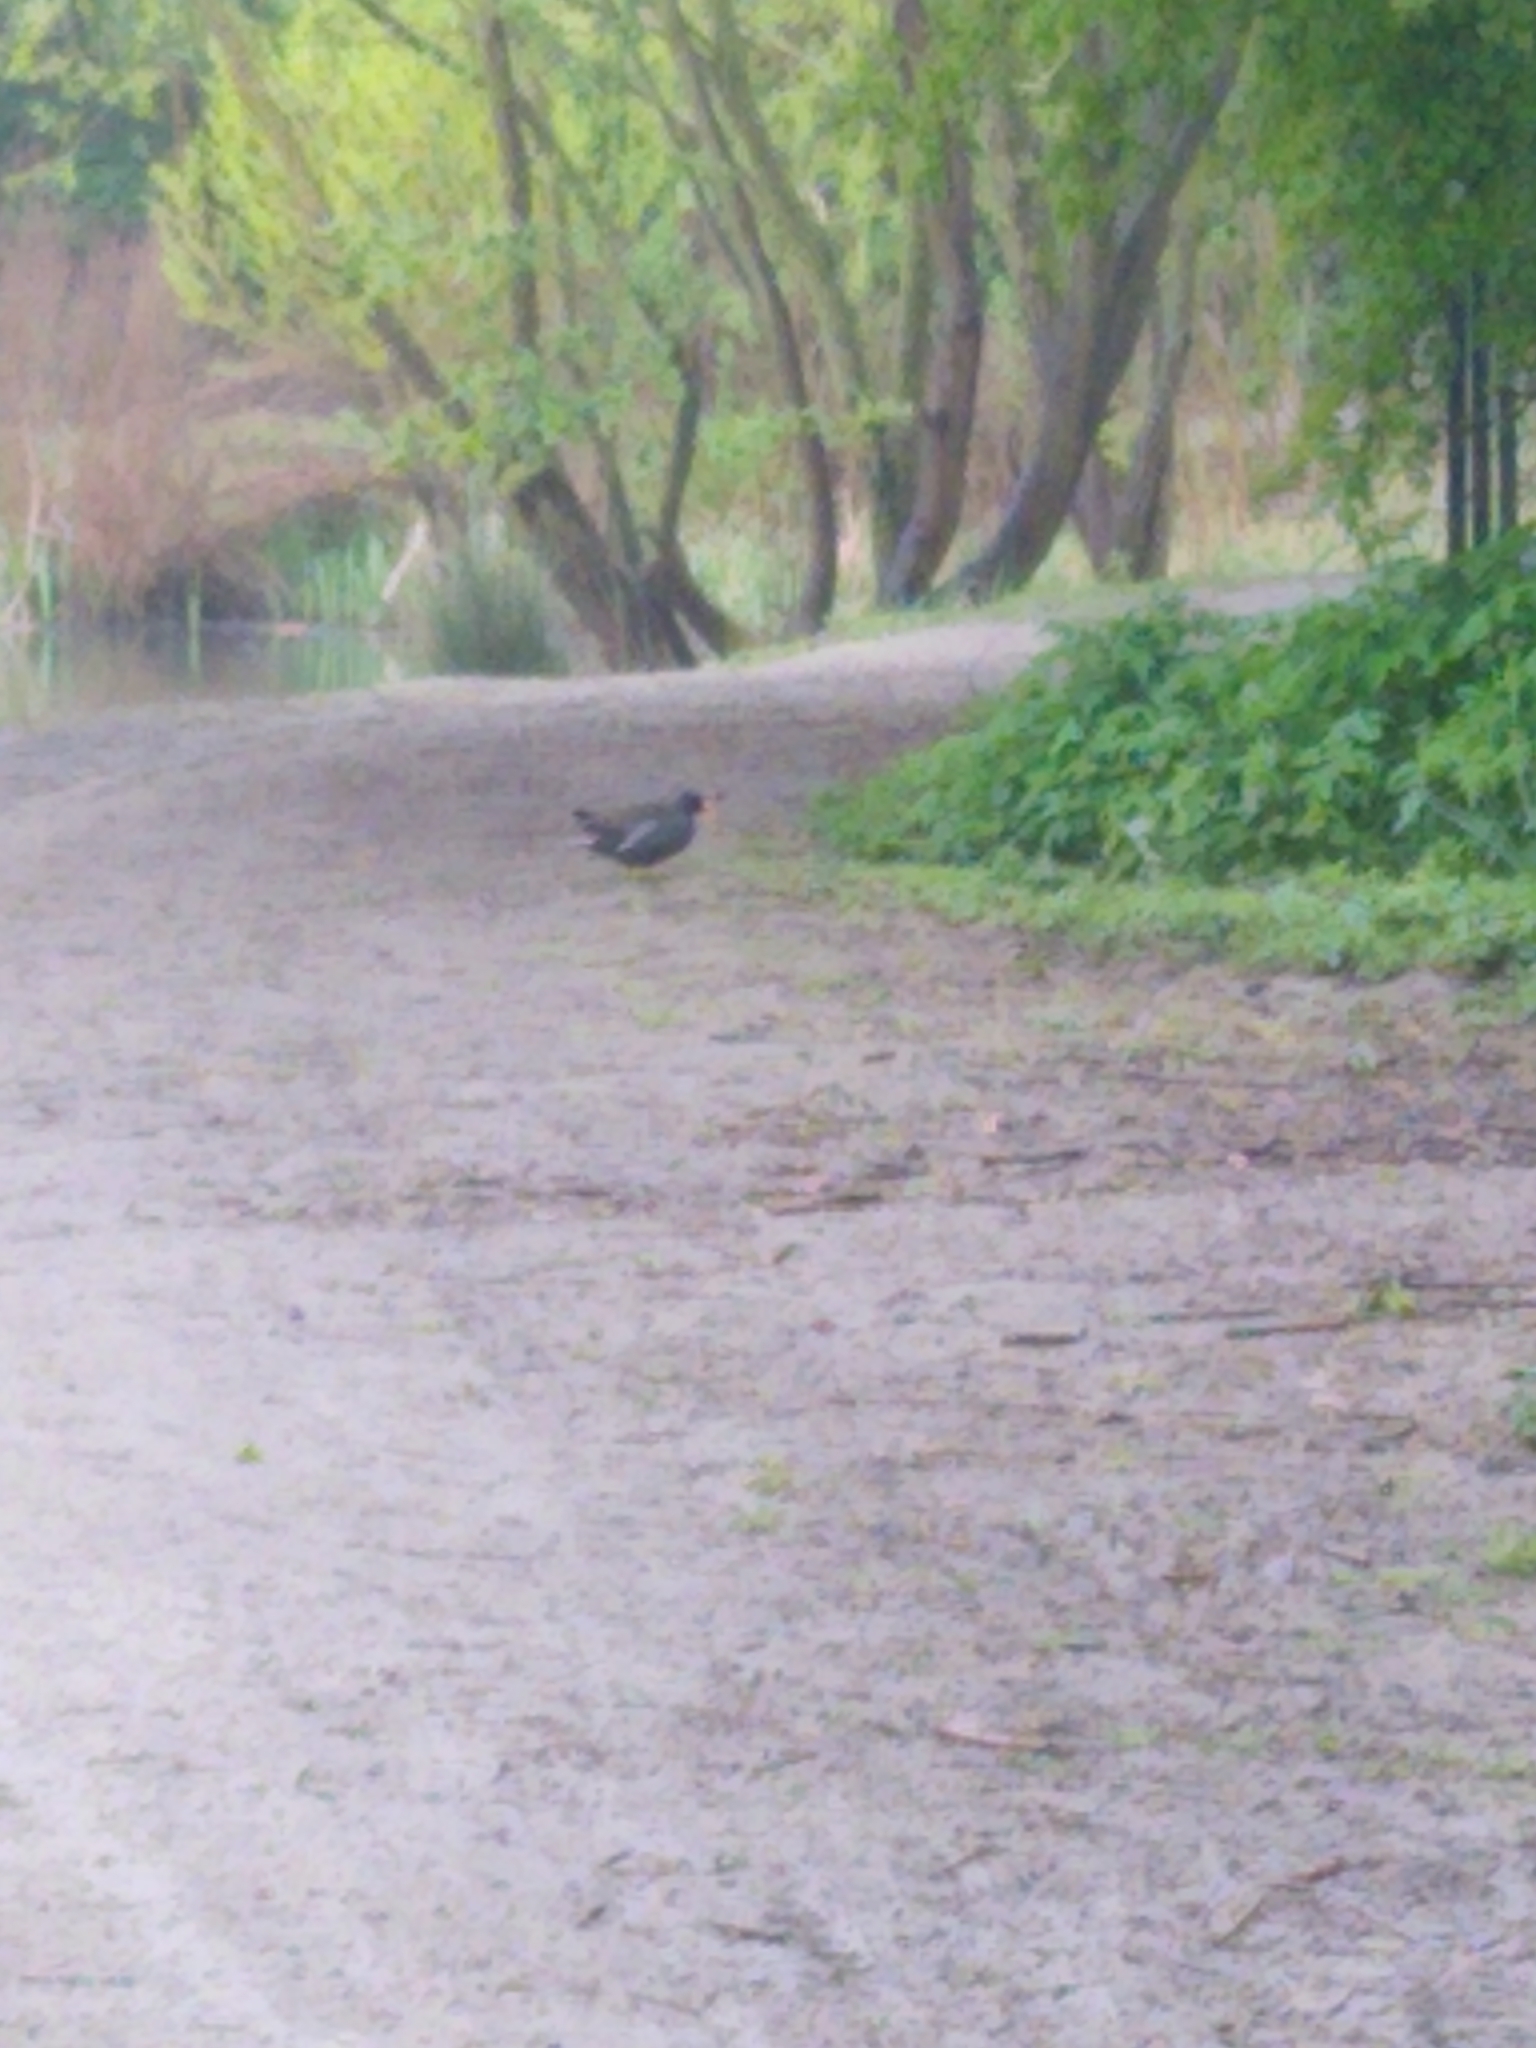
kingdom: Animalia
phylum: Chordata
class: Aves
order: Gruiformes
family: Rallidae
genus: Gallinula
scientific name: Gallinula chloropus
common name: Common moorhen
